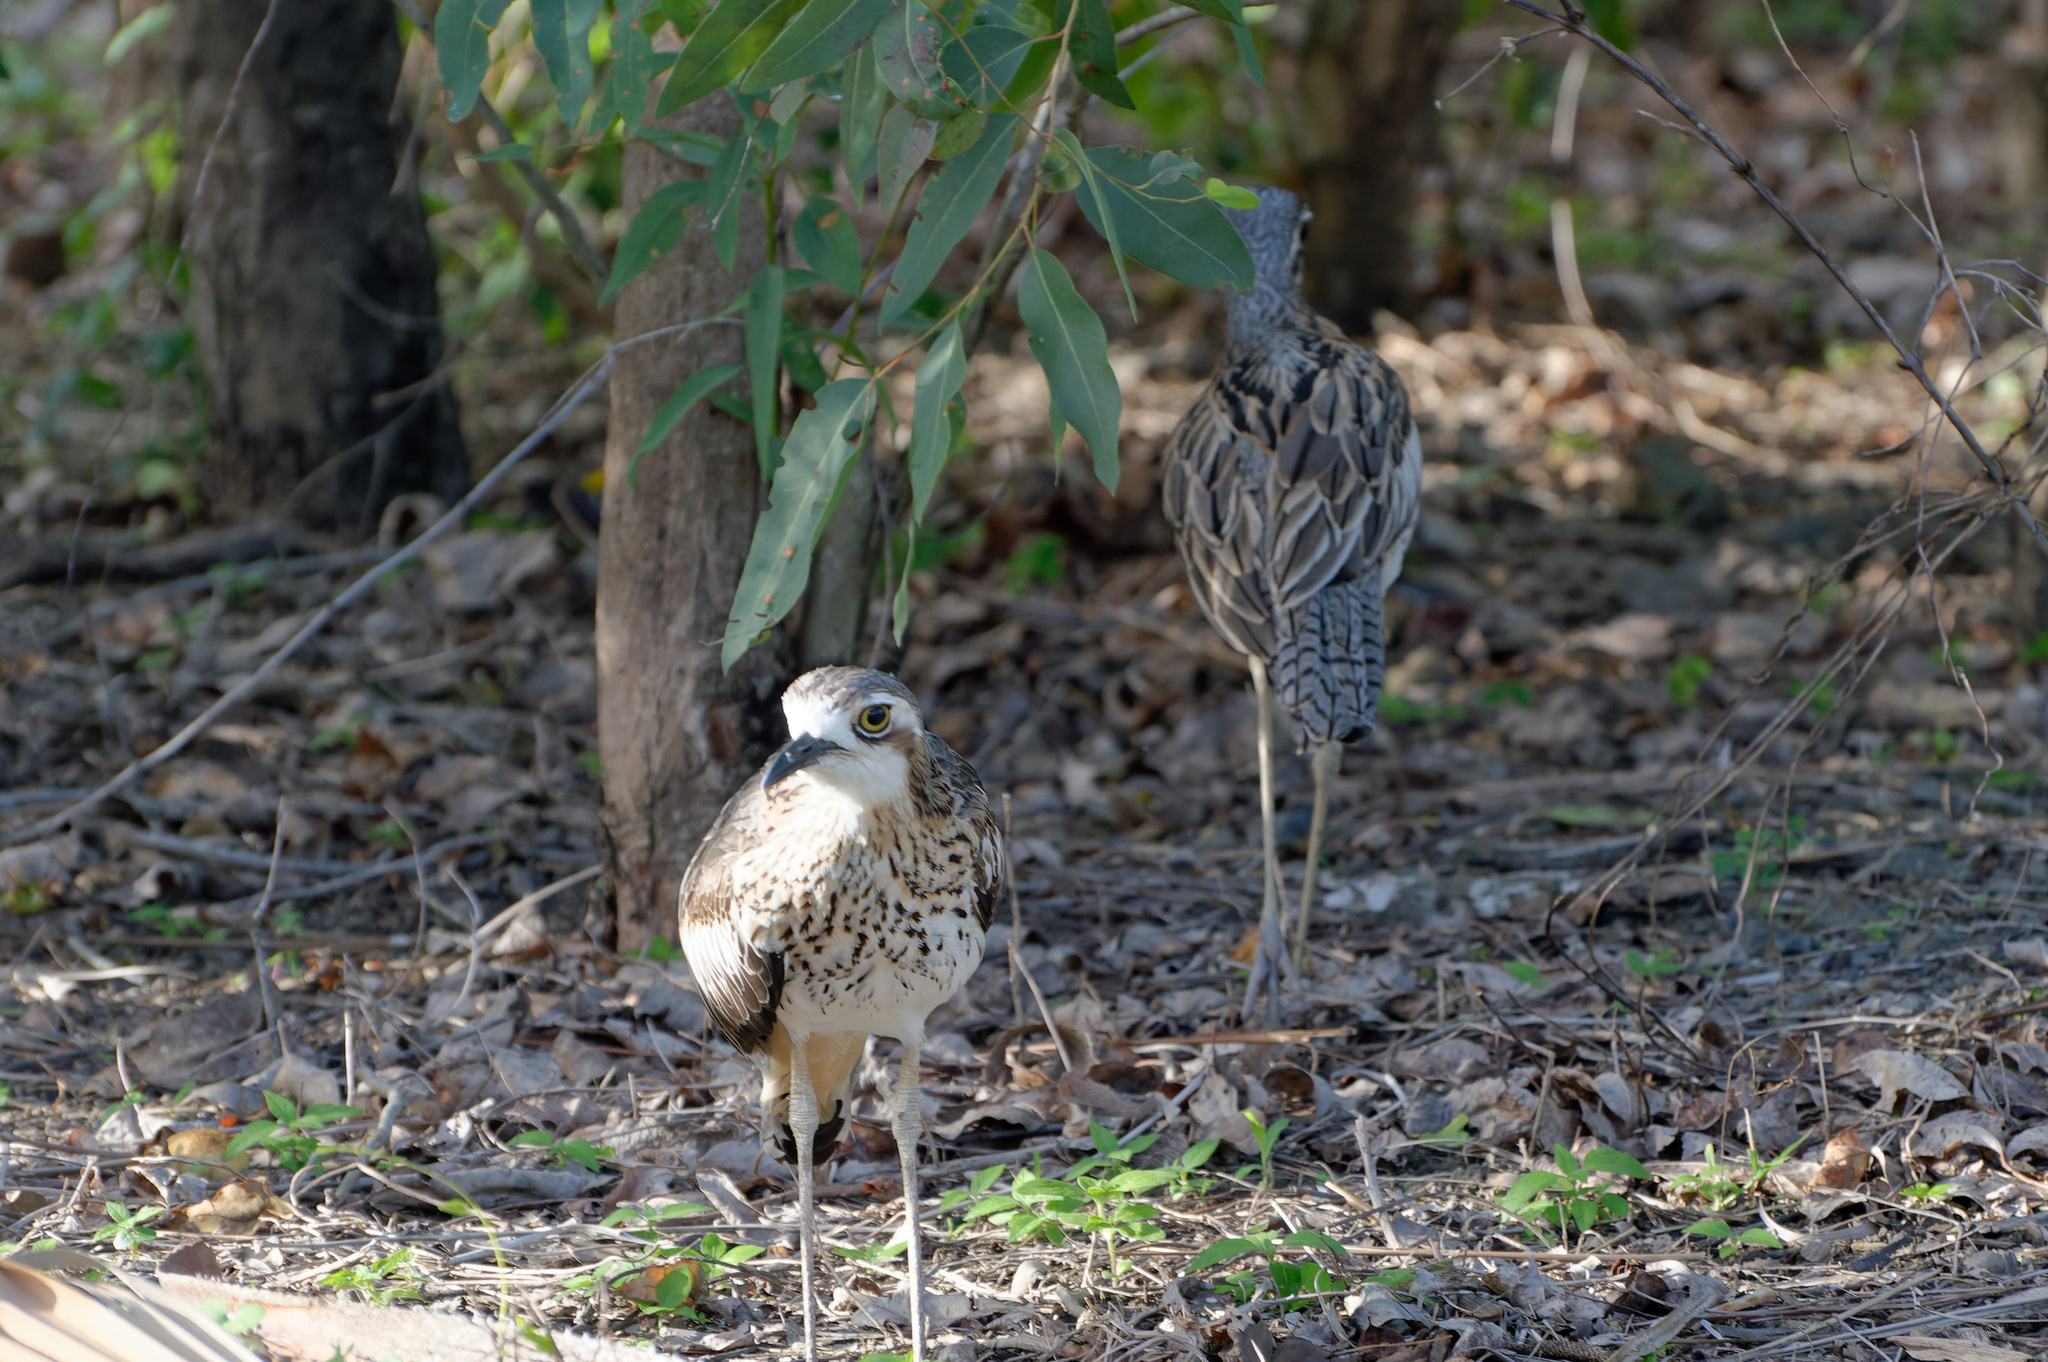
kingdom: Animalia
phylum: Chordata
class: Aves
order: Charadriiformes
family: Burhinidae
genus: Burhinus
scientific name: Burhinus grallarius
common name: Bush stone-curlew
